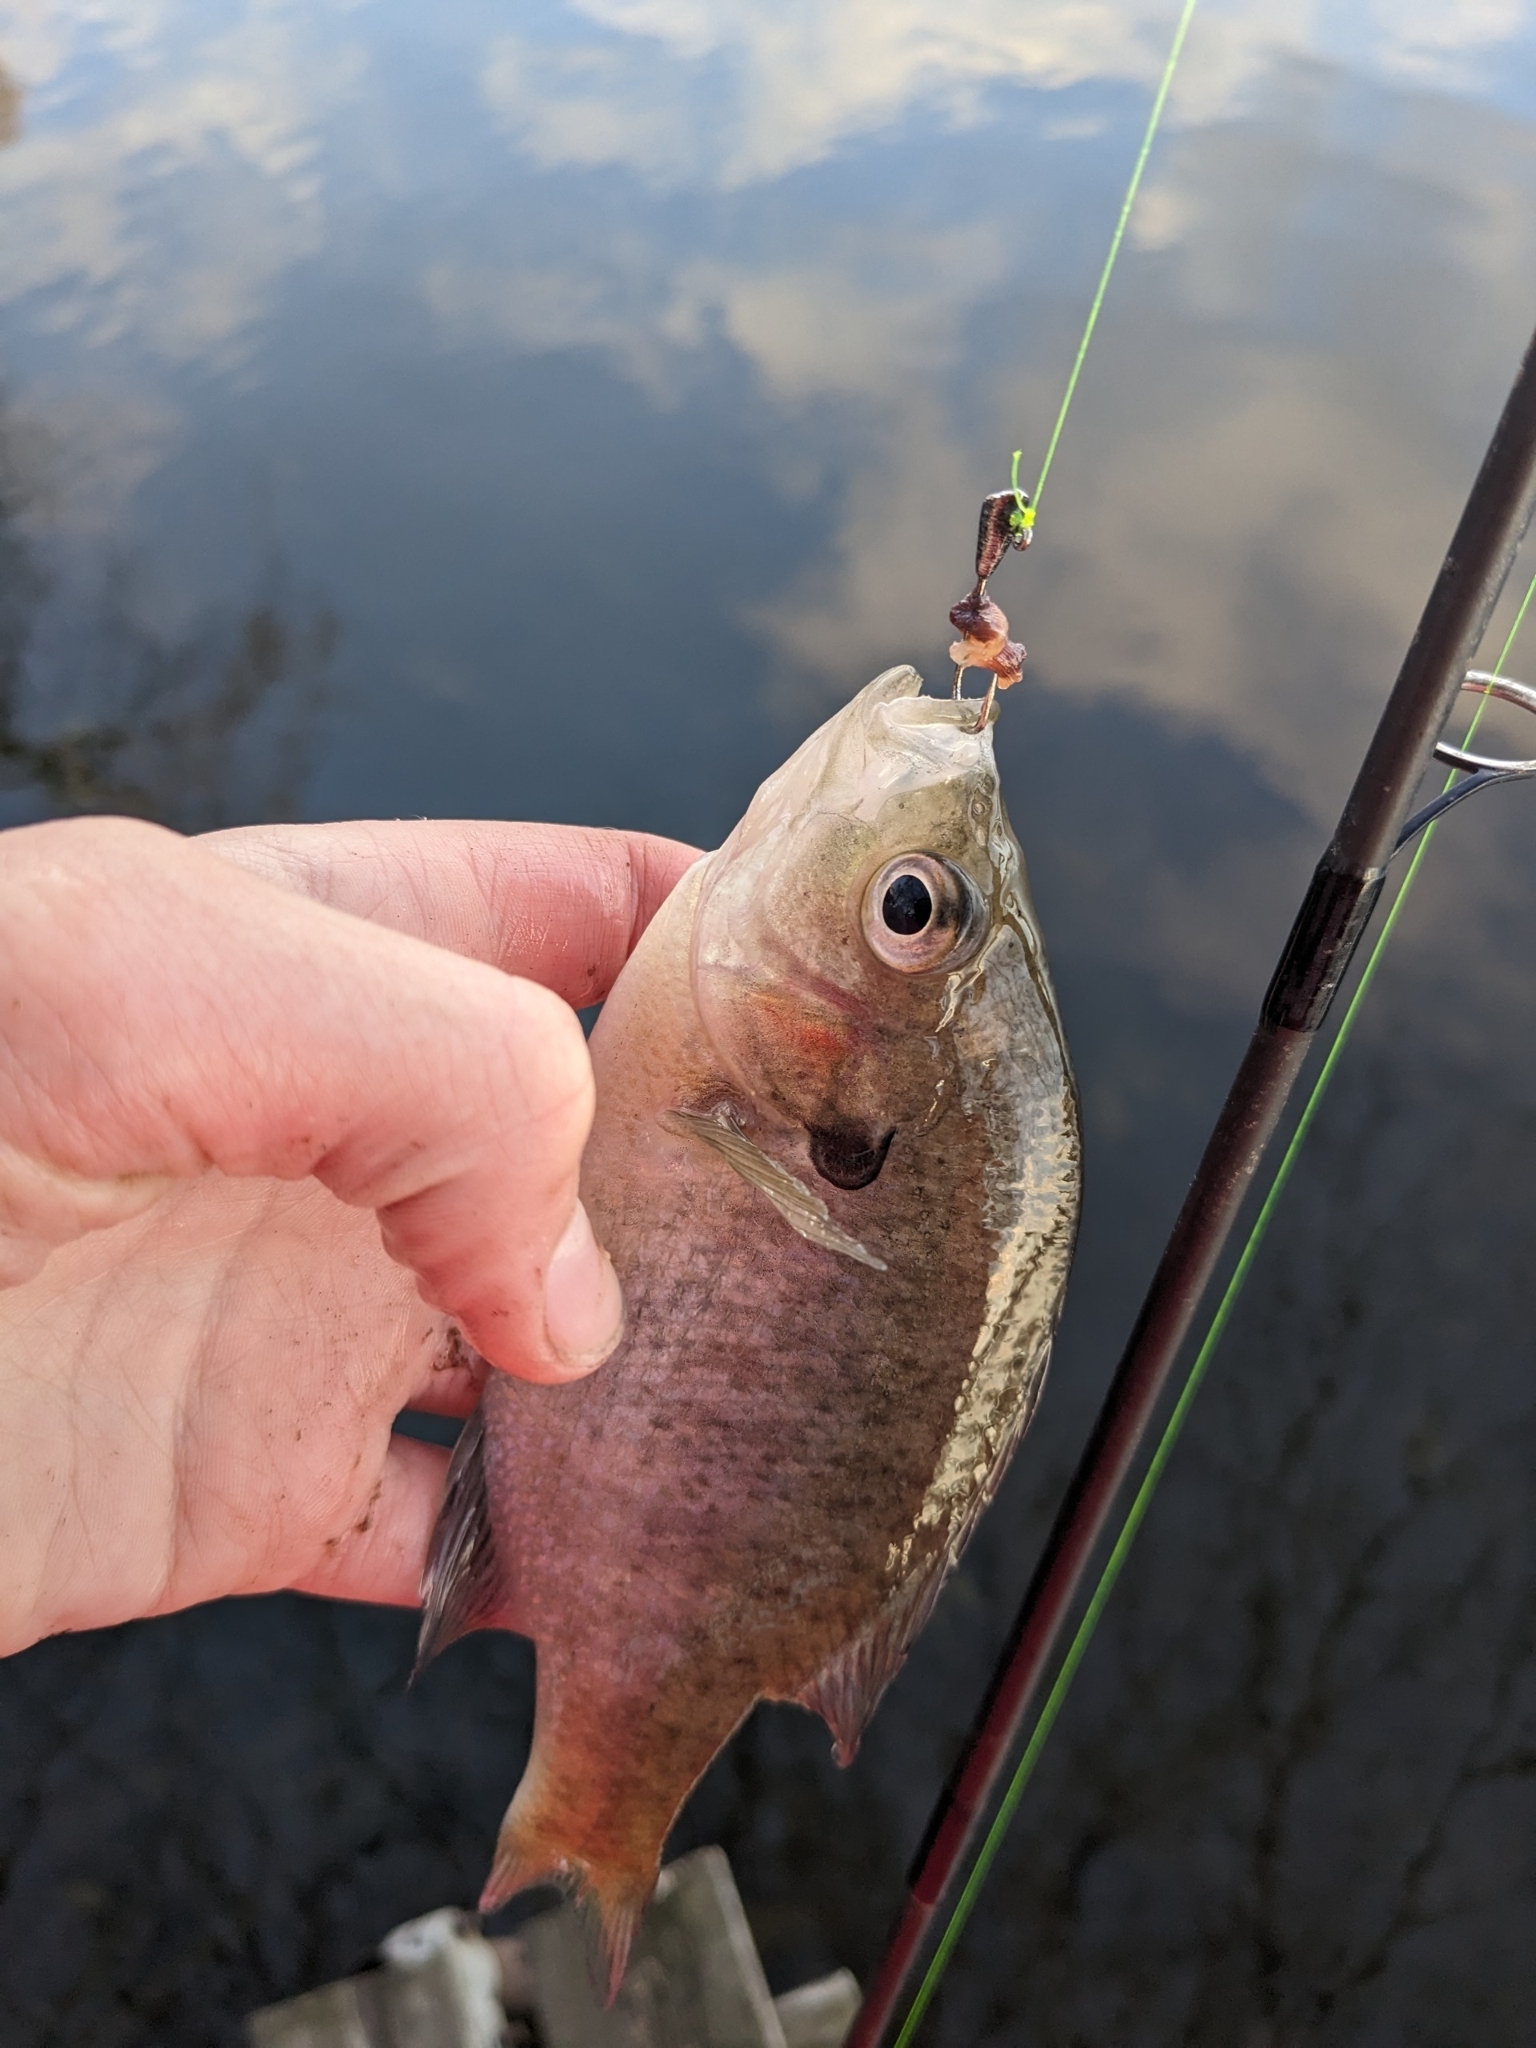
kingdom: Animalia
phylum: Chordata
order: Perciformes
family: Centrarchidae
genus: Lepomis
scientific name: Lepomis macrochirus
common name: Bluegill
